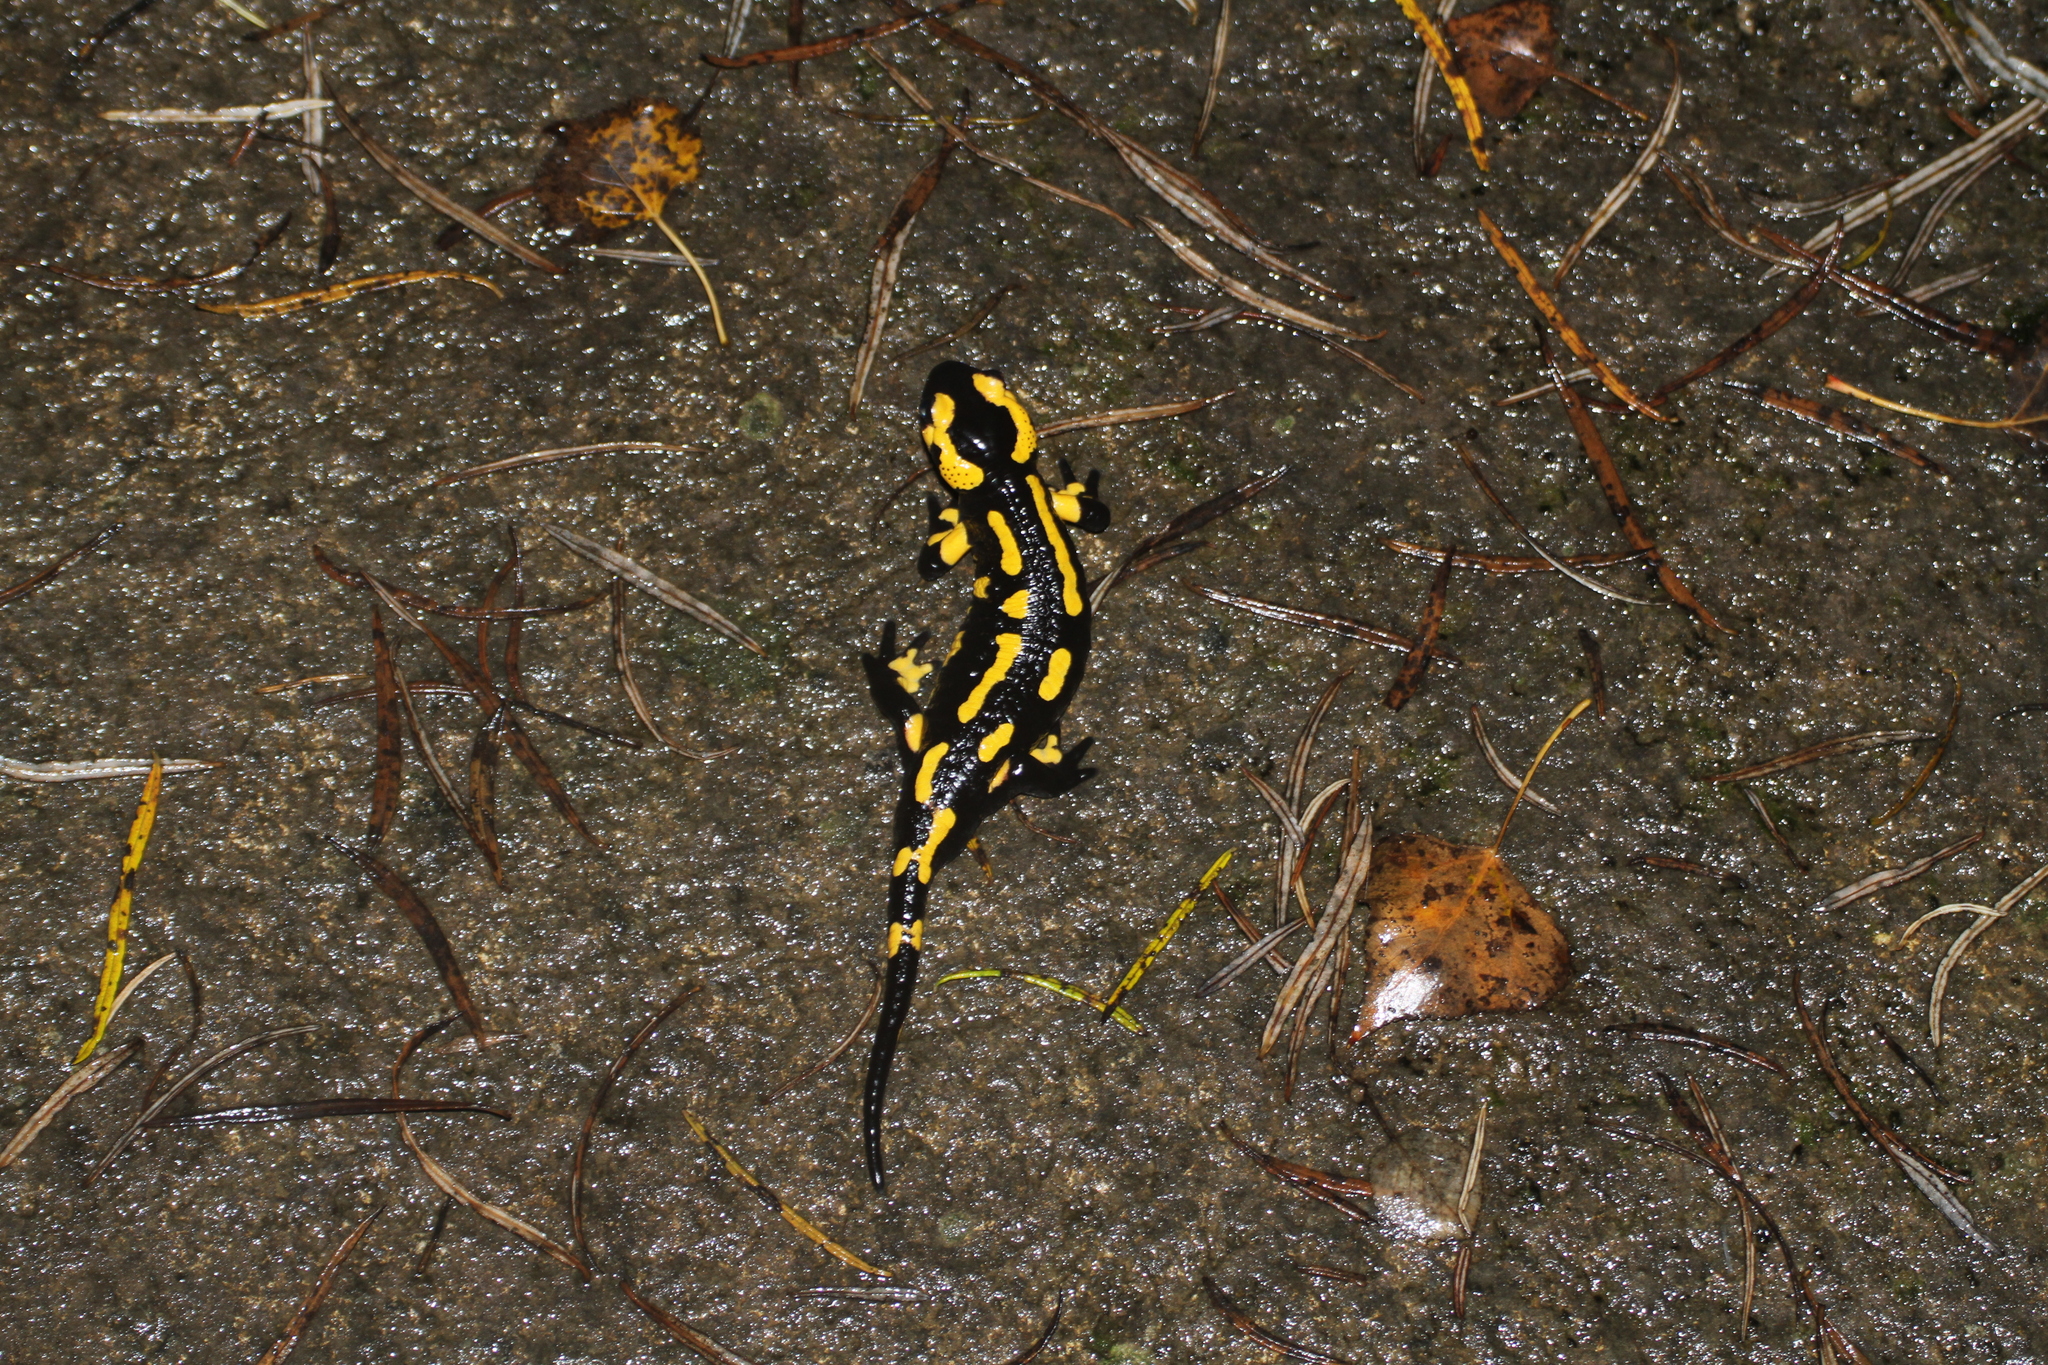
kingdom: Animalia
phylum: Chordata
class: Amphibia
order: Caudata
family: Salamandridae
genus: Salamandra
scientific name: Salamandra salamandra
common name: Fire salamander
